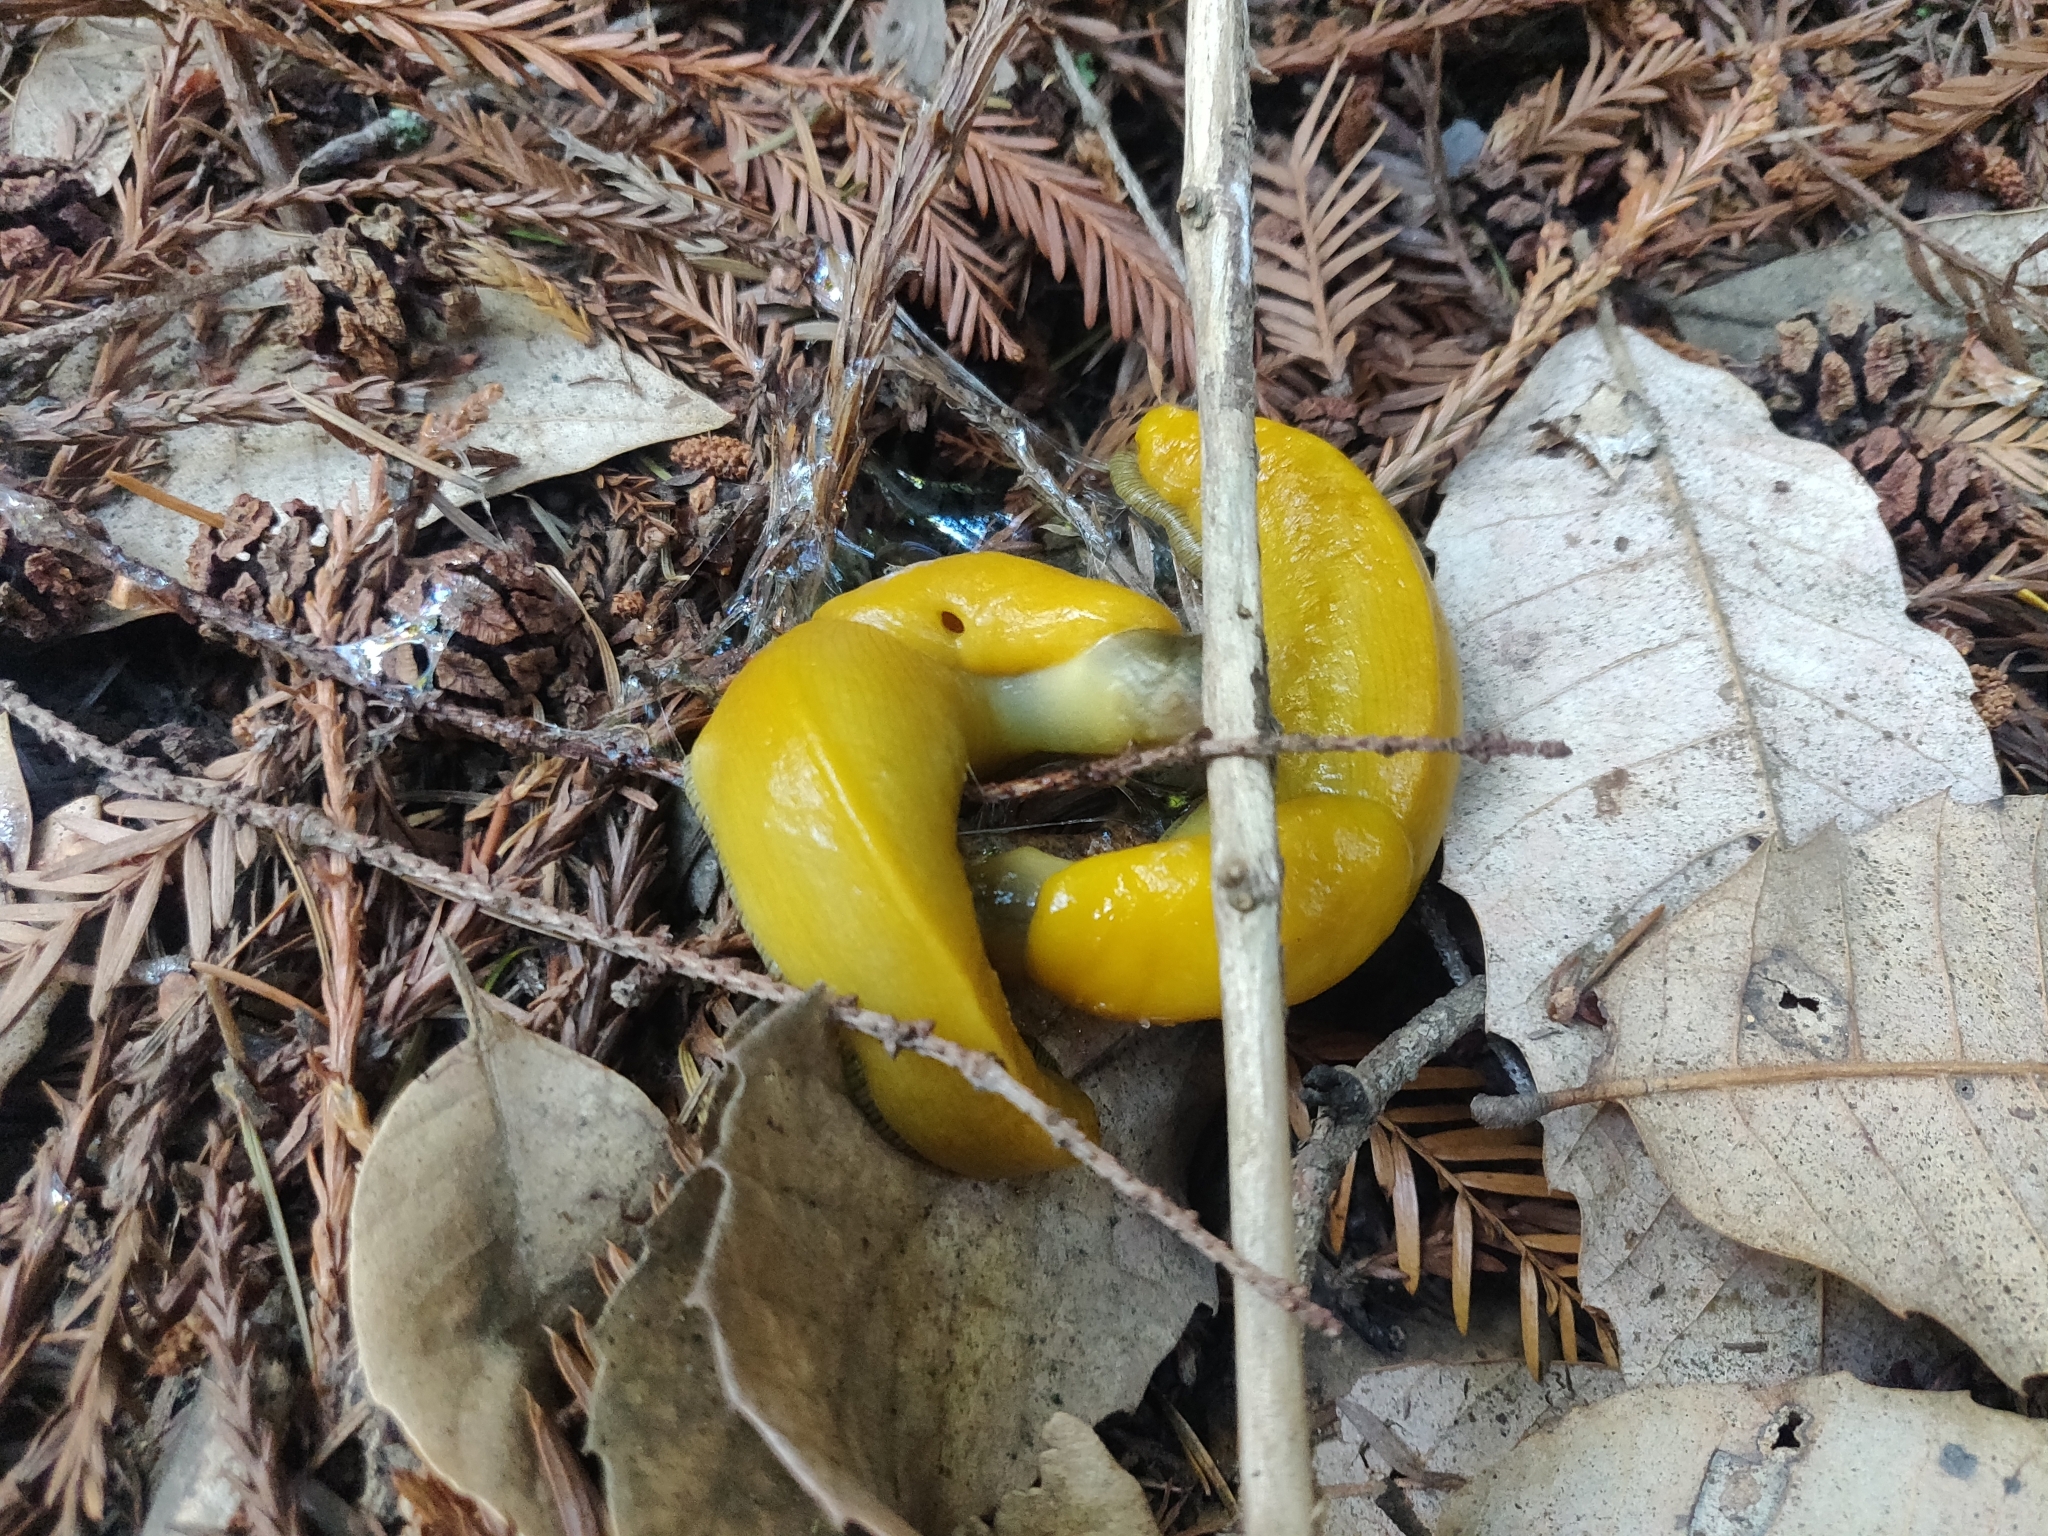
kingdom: Animalia
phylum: Mollusca
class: Gastropoda
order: Stylommatophora
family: Ariolimacidae
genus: Ariolimax
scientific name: Ariolimax californicus
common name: California banana slug
